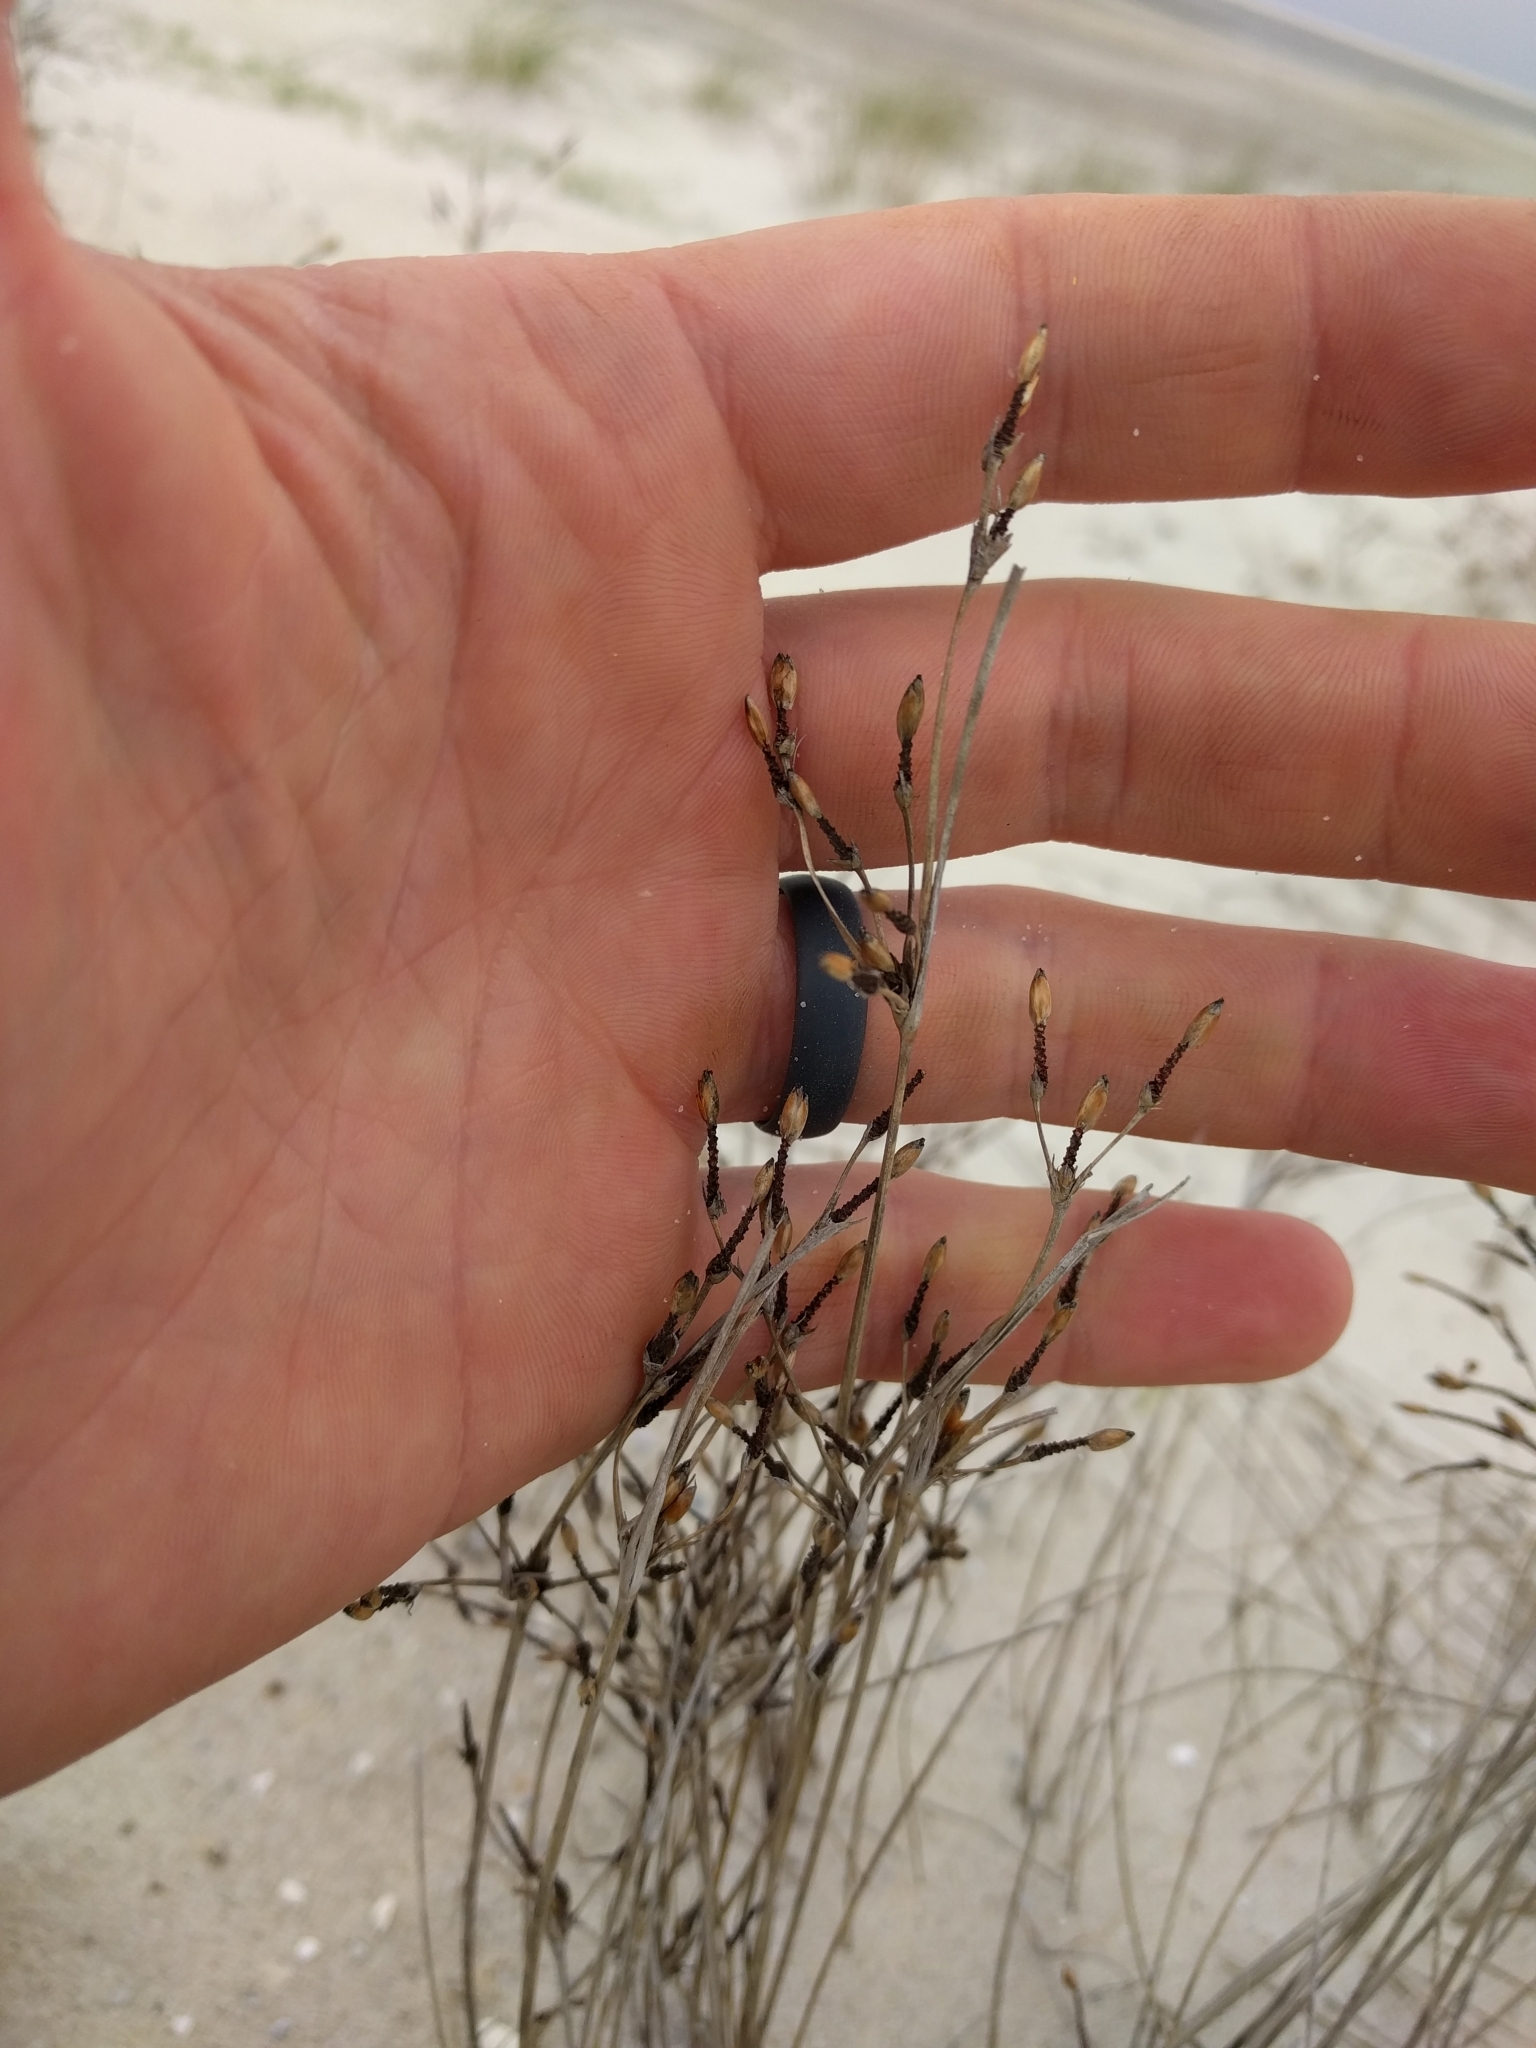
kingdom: Plantae
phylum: Tracheophyta
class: Liliopsida
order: Poales
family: Cyperaceae
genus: Fimbristylis
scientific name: Fimbristylis spadicea
